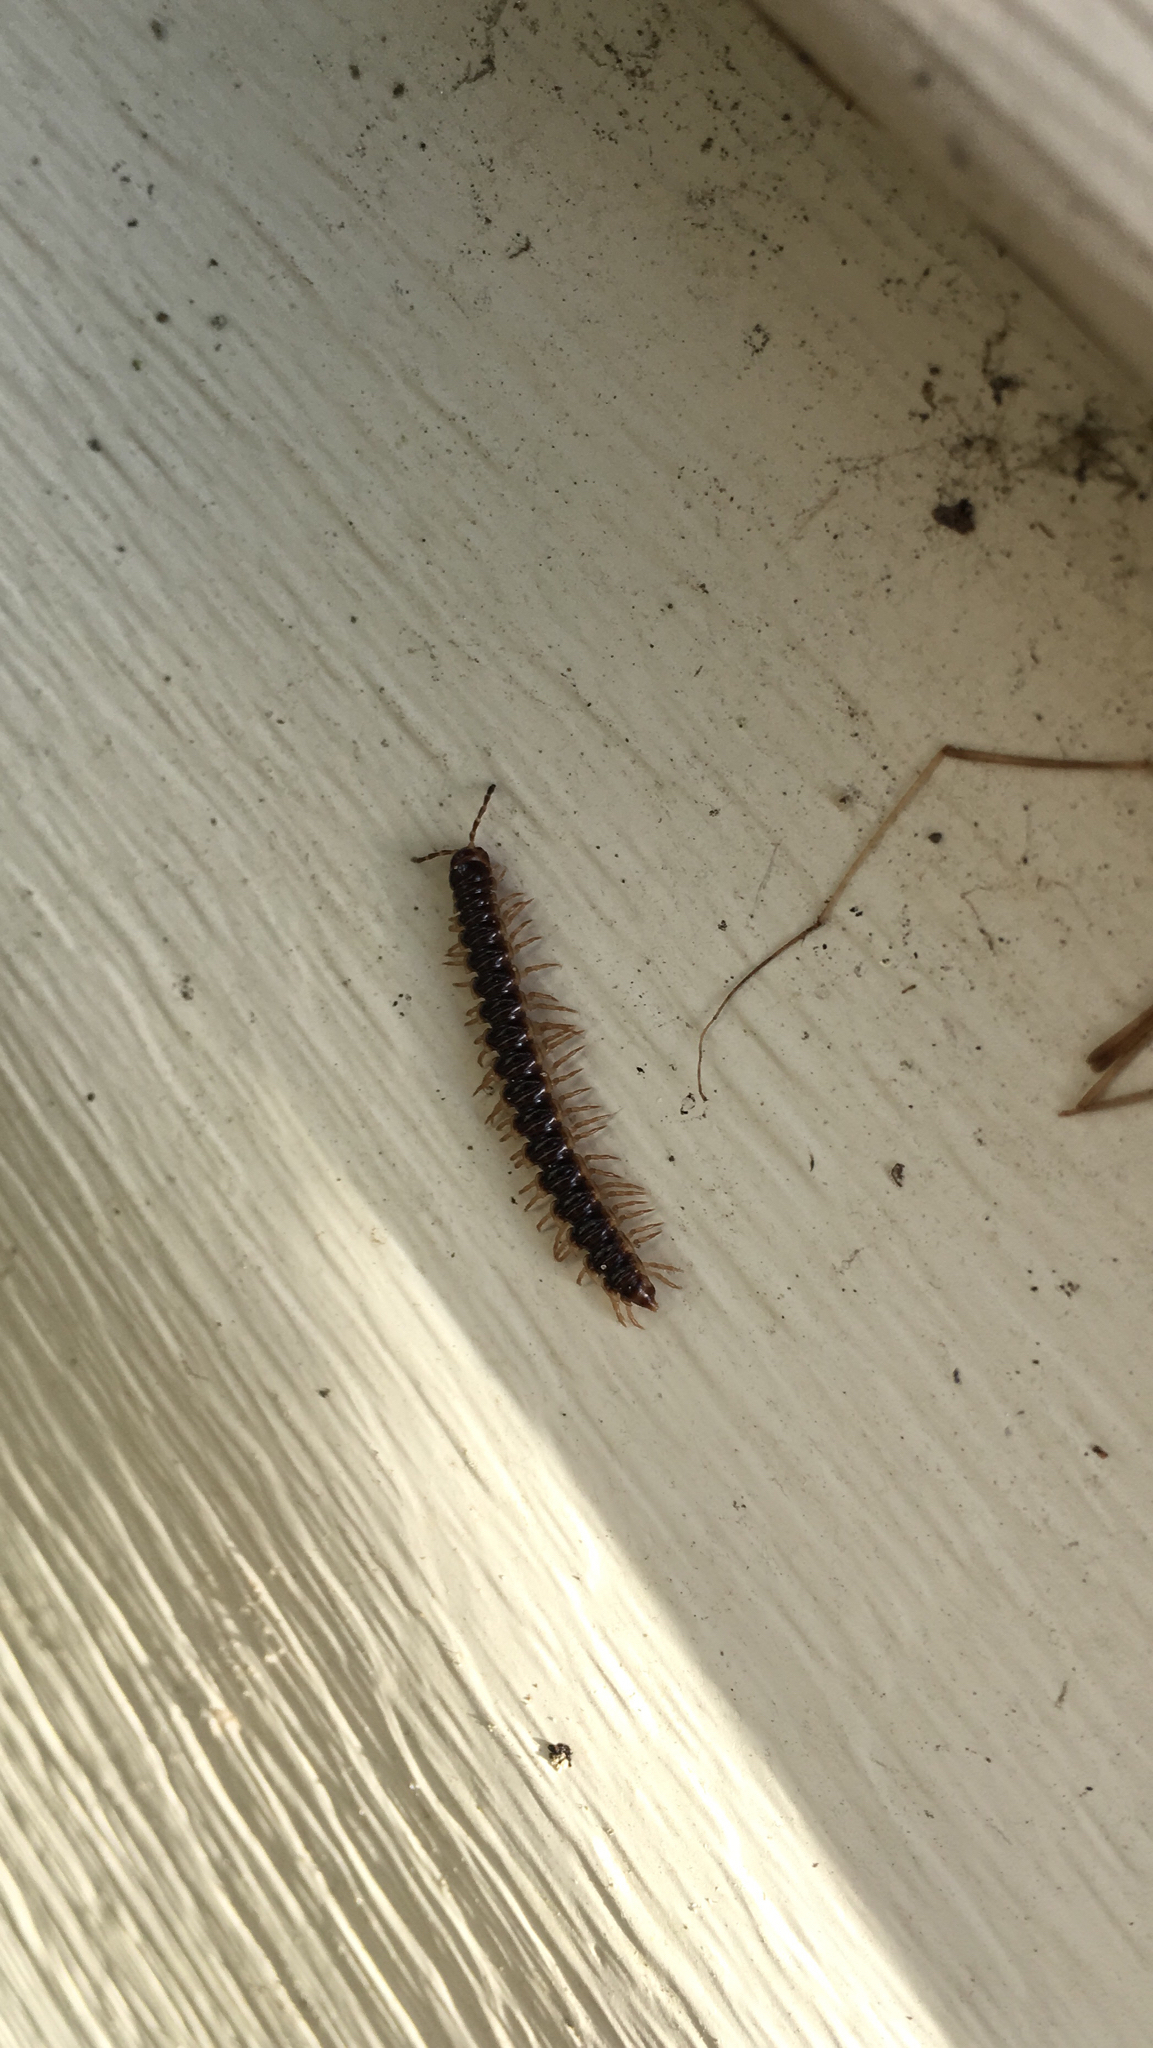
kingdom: Animalia
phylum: Arthropoda
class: Diplopoda
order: Polydesmida
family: Paradoxosomatidae
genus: Oxidus
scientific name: Oxidus gracilis
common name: Greenhouse millipede
